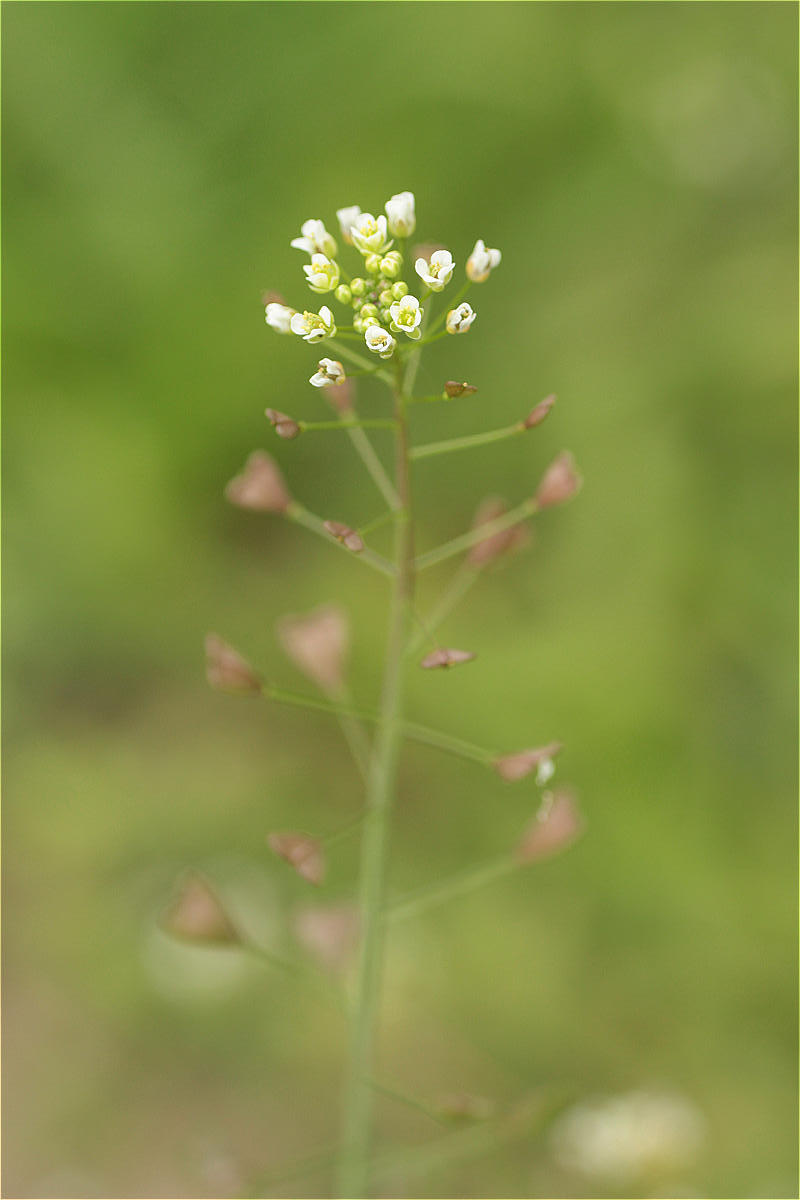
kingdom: Plantae
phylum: Tracheophyta
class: Magnoliopsida
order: Brassicales
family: Brassicaceae
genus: Capsella
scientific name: Capsella bursa-pastoris
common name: Shepherd's purse
